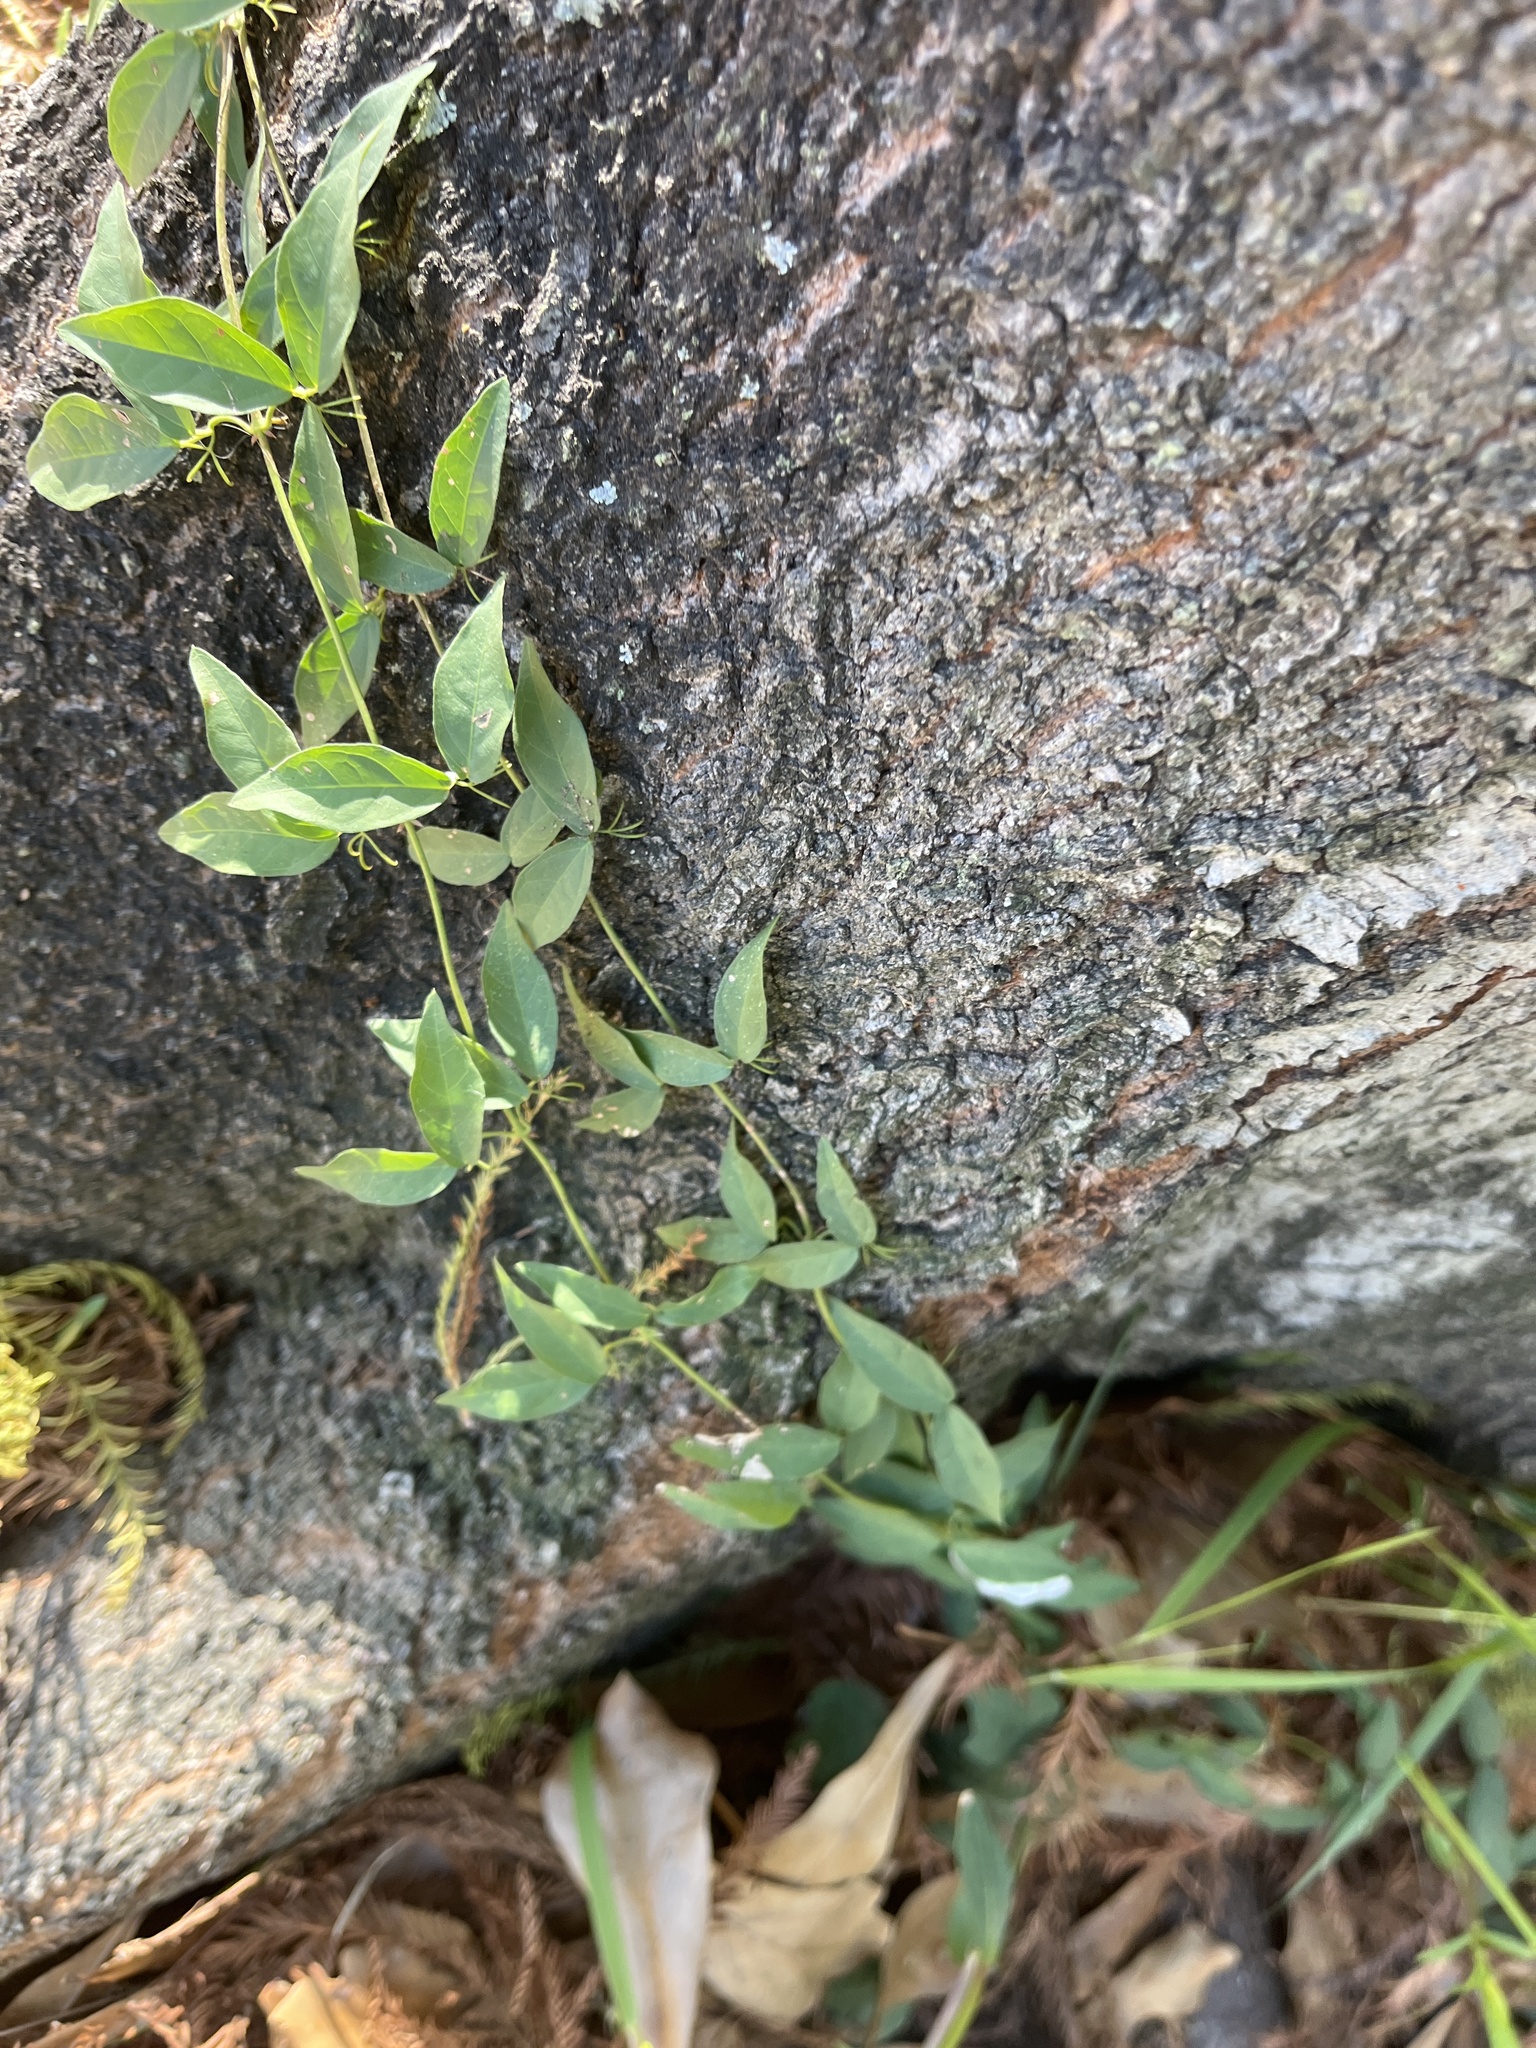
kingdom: Plantae
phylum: Tracheophyta
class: Magnoliopsida
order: Lamiales
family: Bignoniaceae
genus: Dolichandra
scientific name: Dolichandra unguis-cati
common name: Catclaw vine
